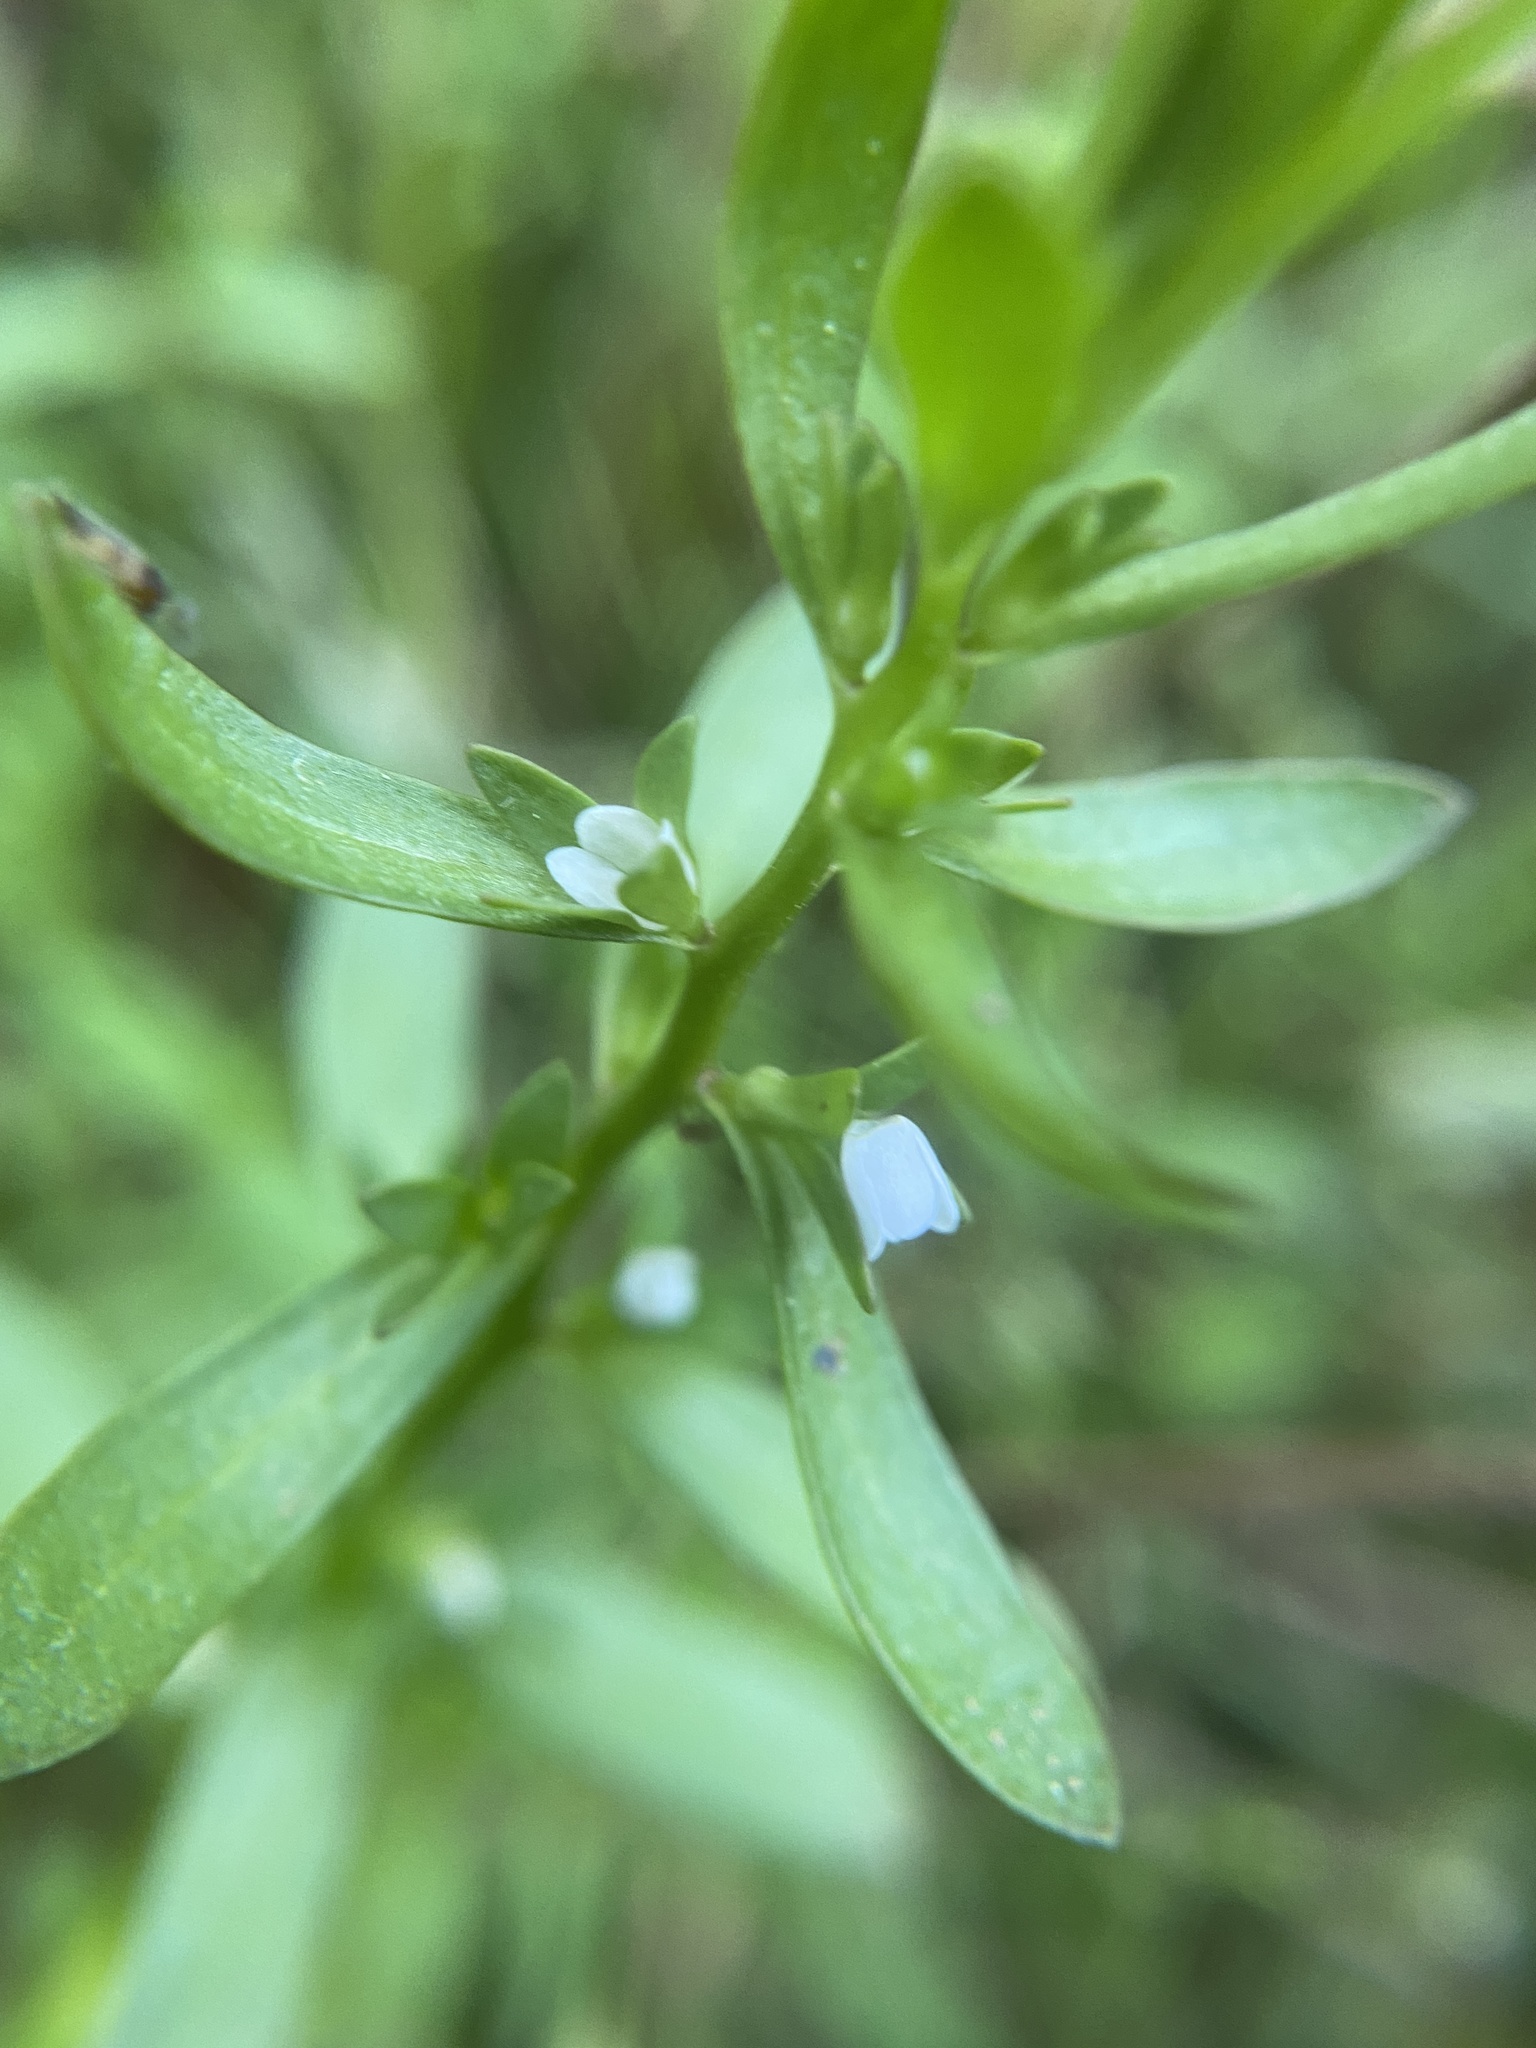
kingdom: Plantae
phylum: Tracheophyta
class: Magnoliopsida
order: Lamiales
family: Plantaginaceae
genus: Veronica
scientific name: Veronica peregrina
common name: Neckweed
